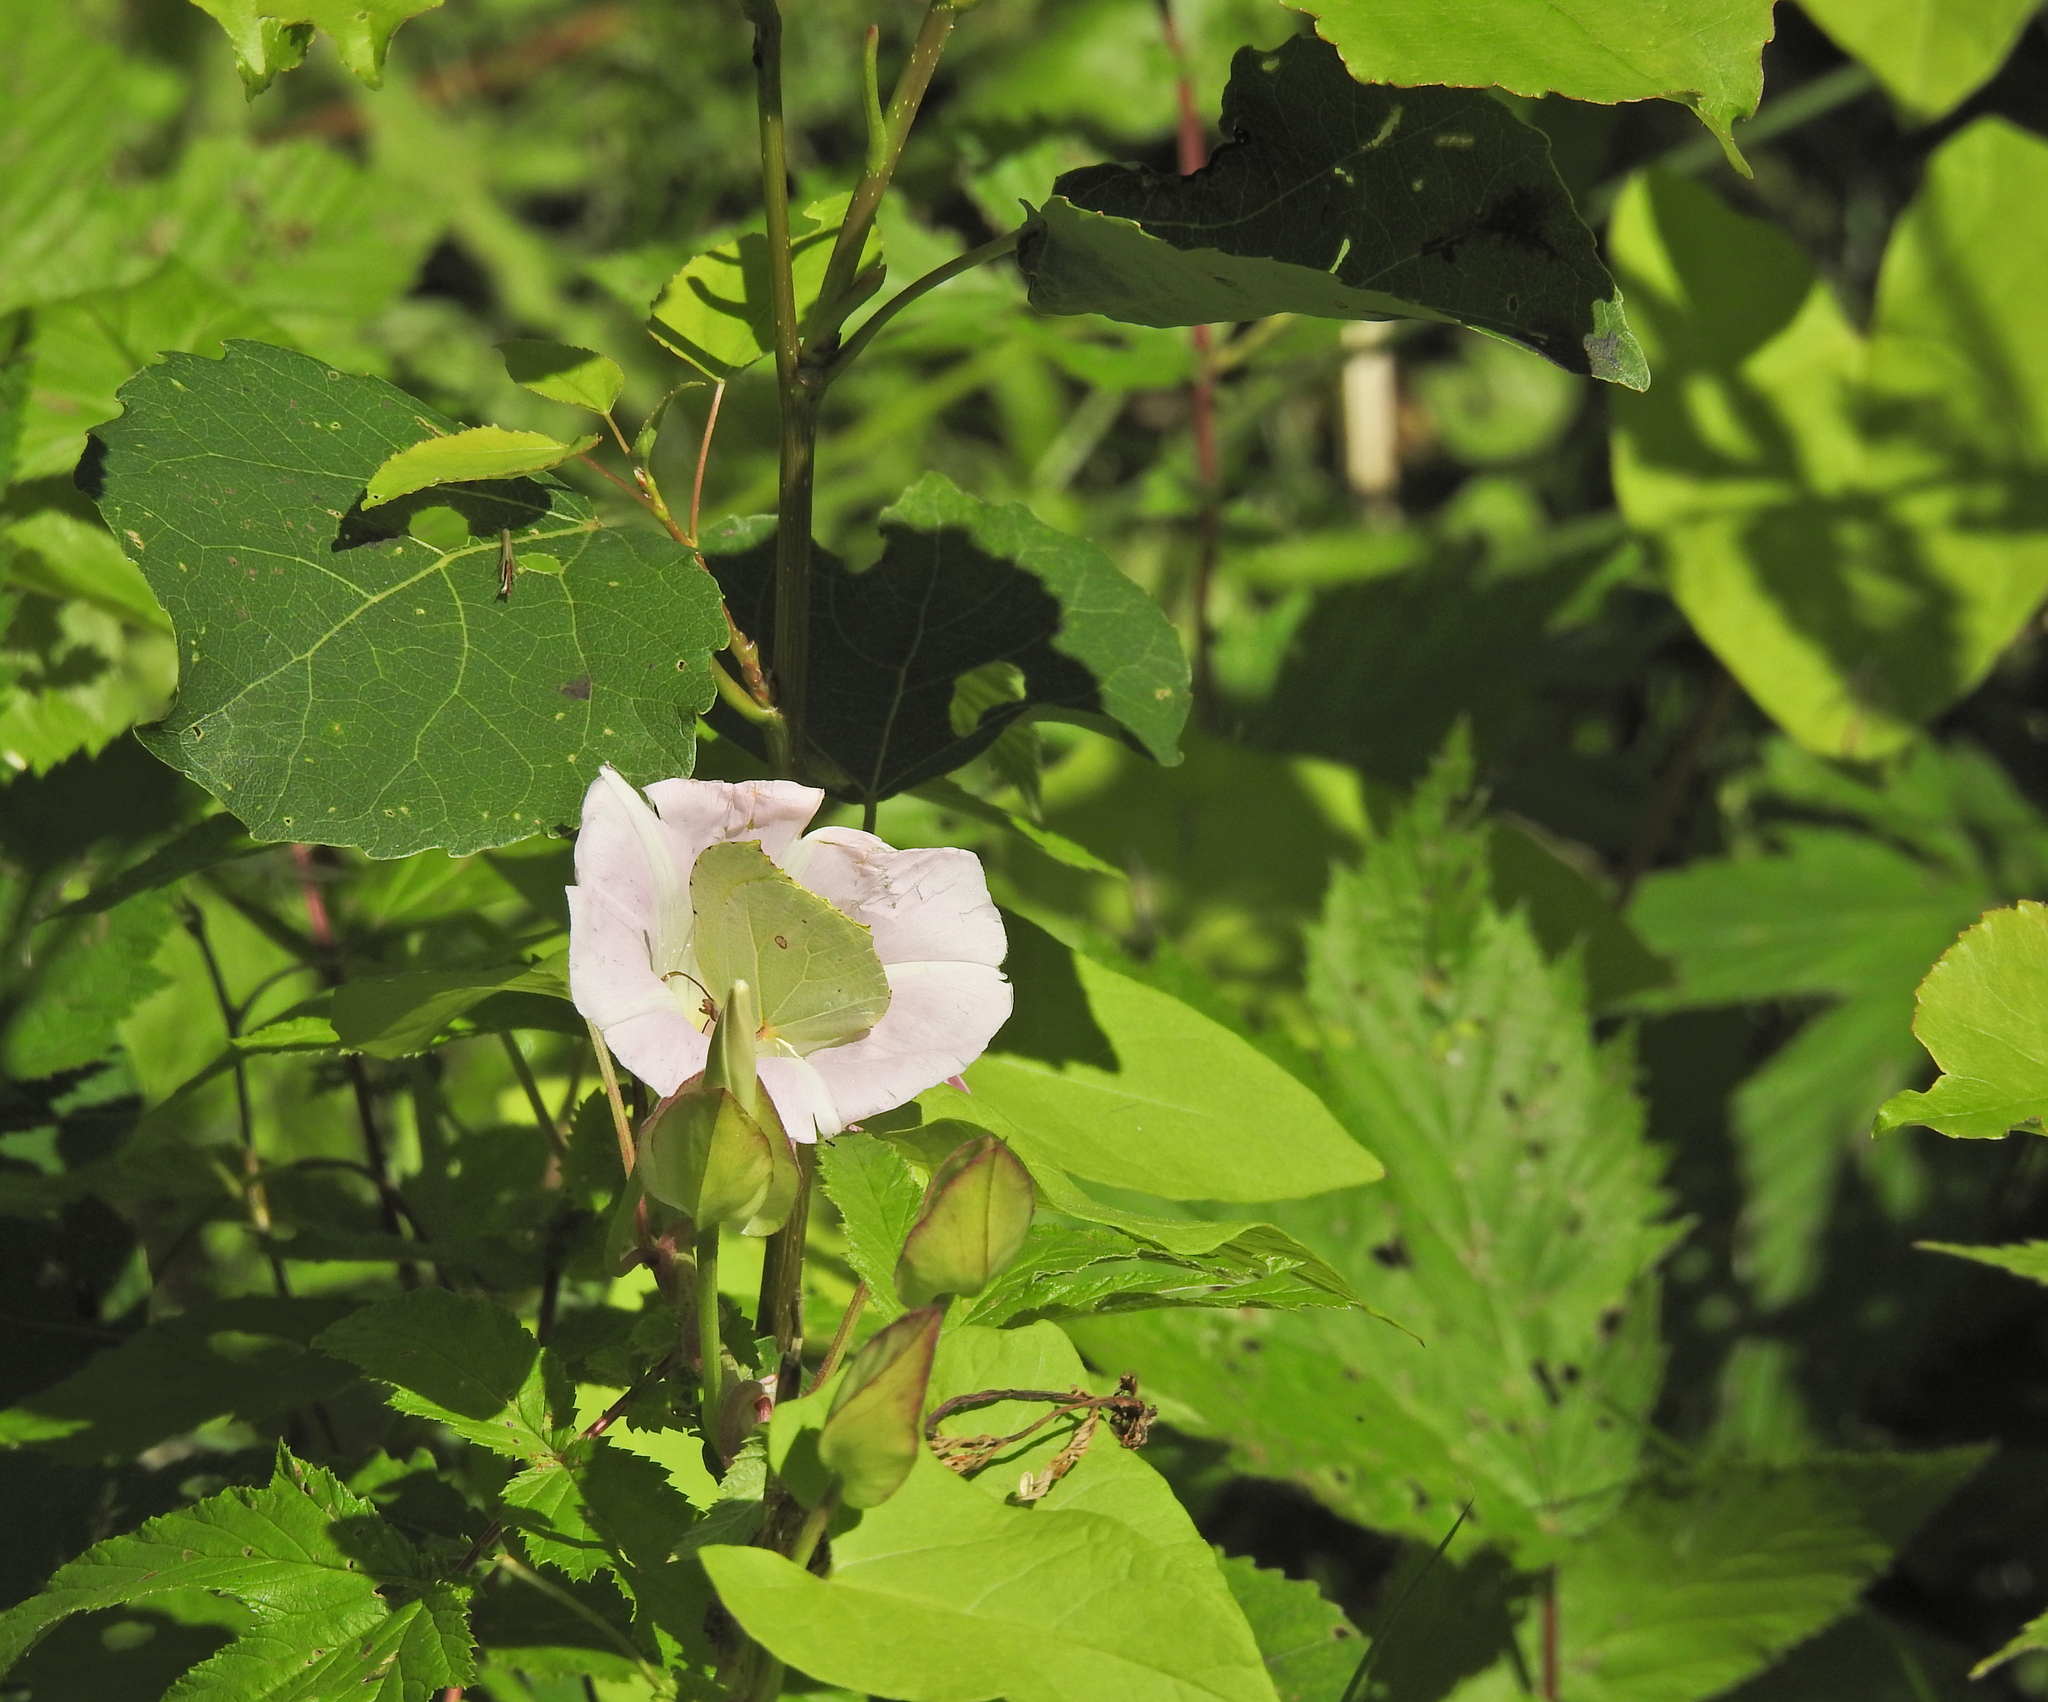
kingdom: Plantae
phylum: Tracheophyta
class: Magnoliopsida
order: Solanales
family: Convolvulaceae
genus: Calystegia
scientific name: Calystegia sepium
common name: Hedge bindweed
